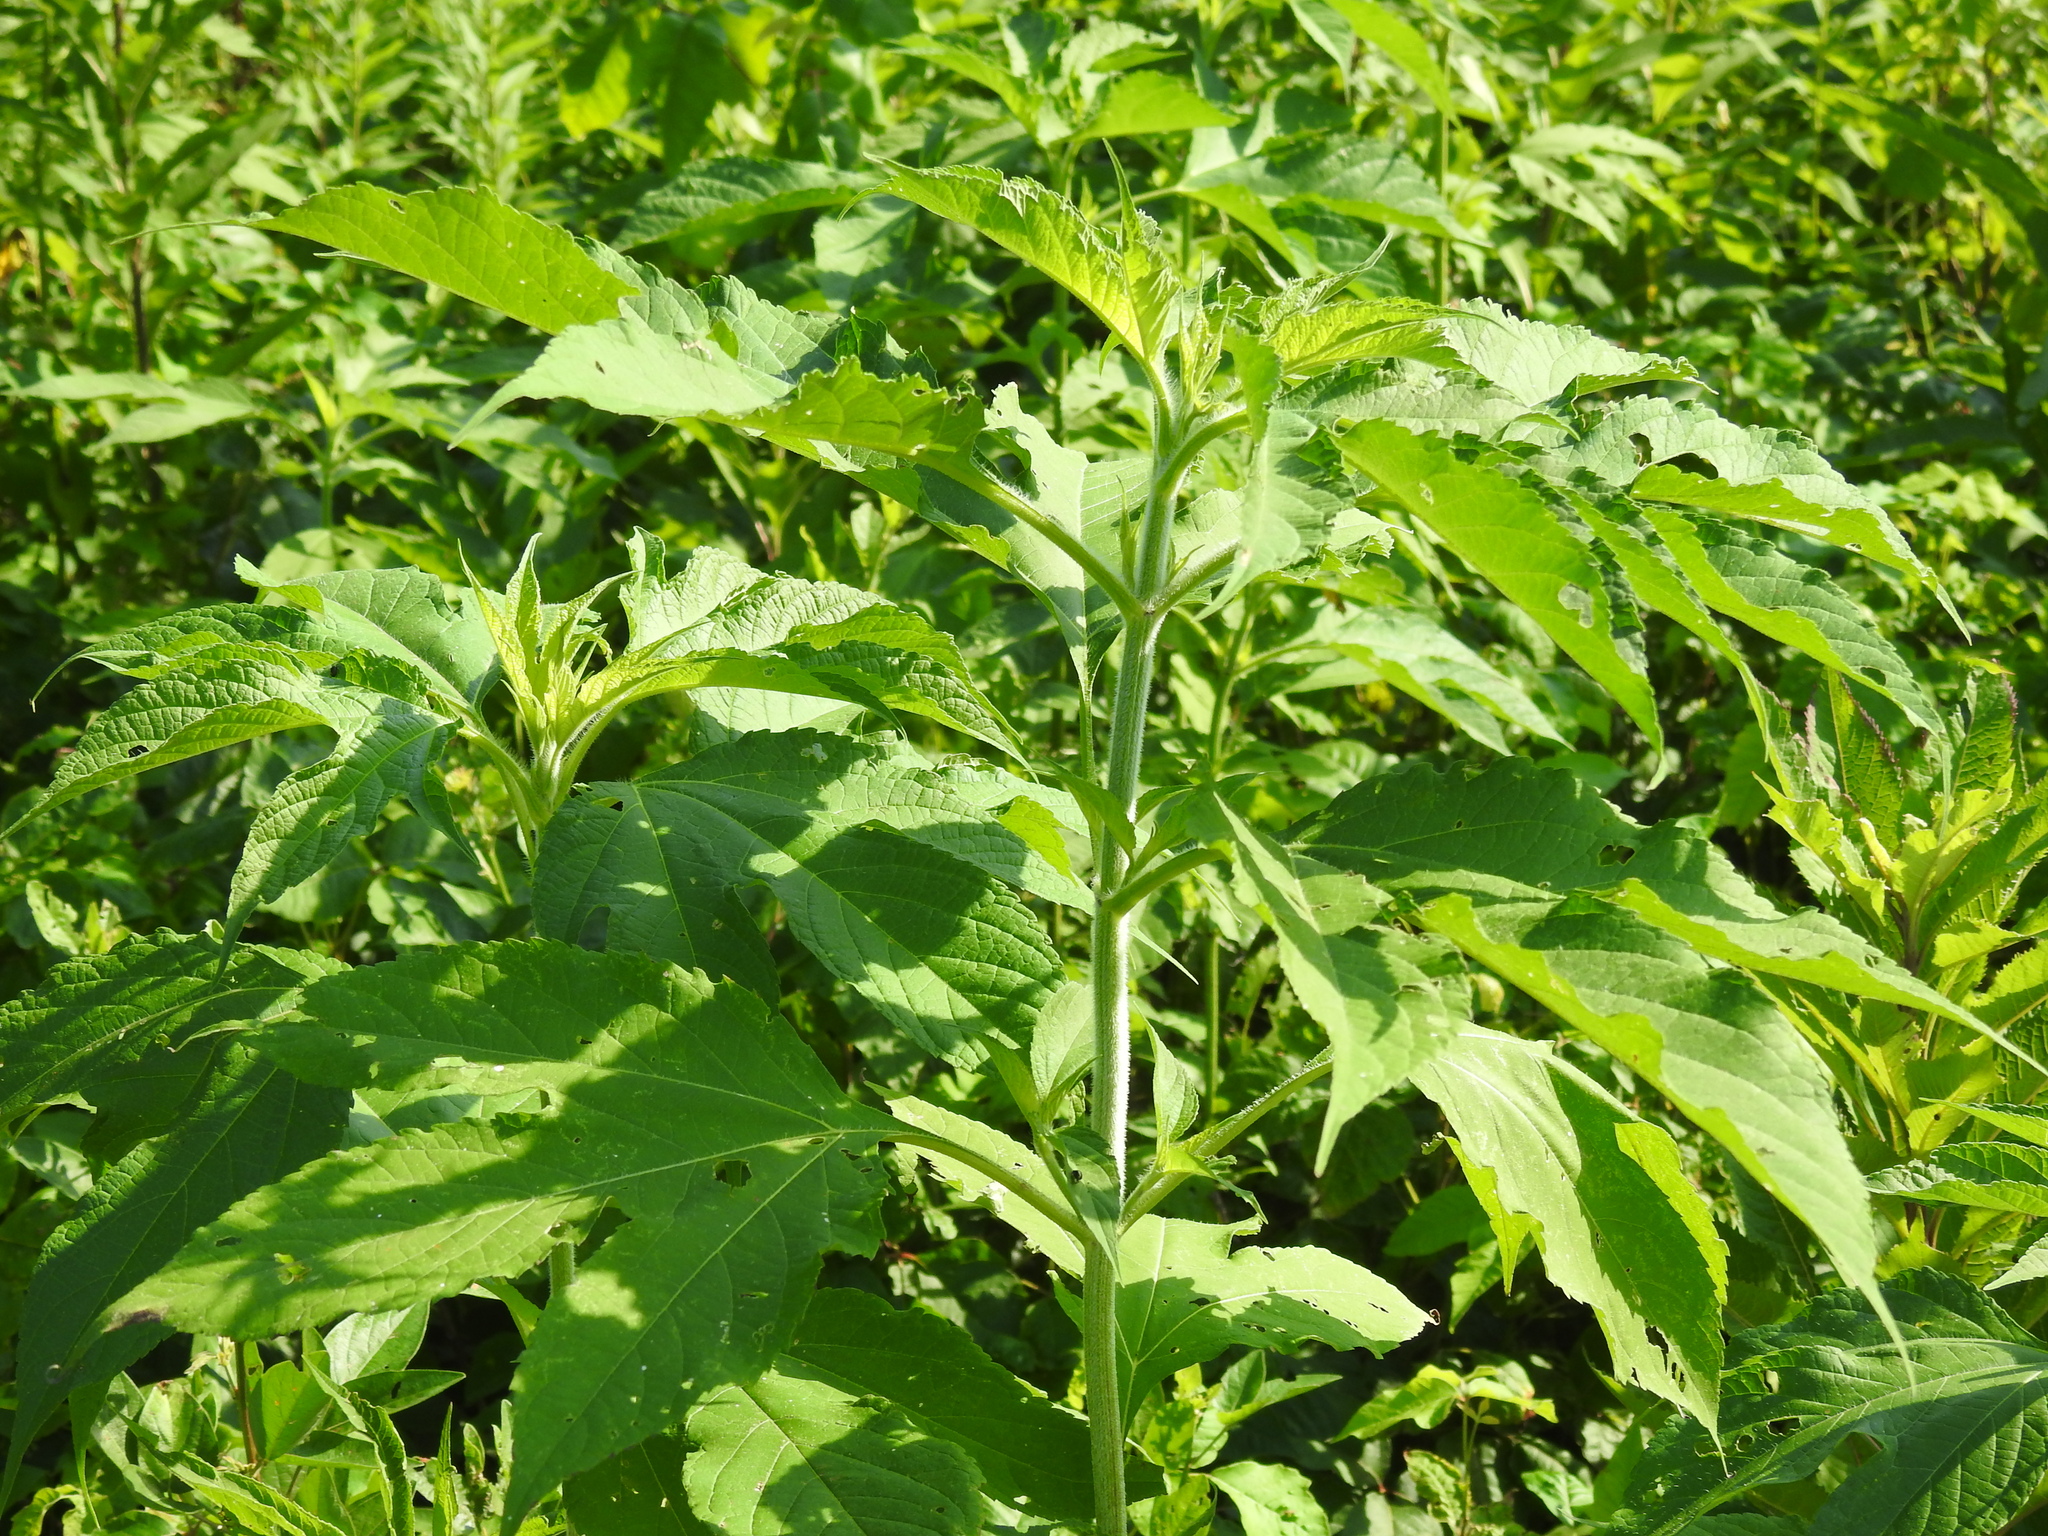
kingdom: Plantae
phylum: Tracheophyta
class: Magnoliopsida
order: Asterales
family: Asteraceae
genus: Ambrosia
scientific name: Ambrosia trifida
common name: Giant ragweed
